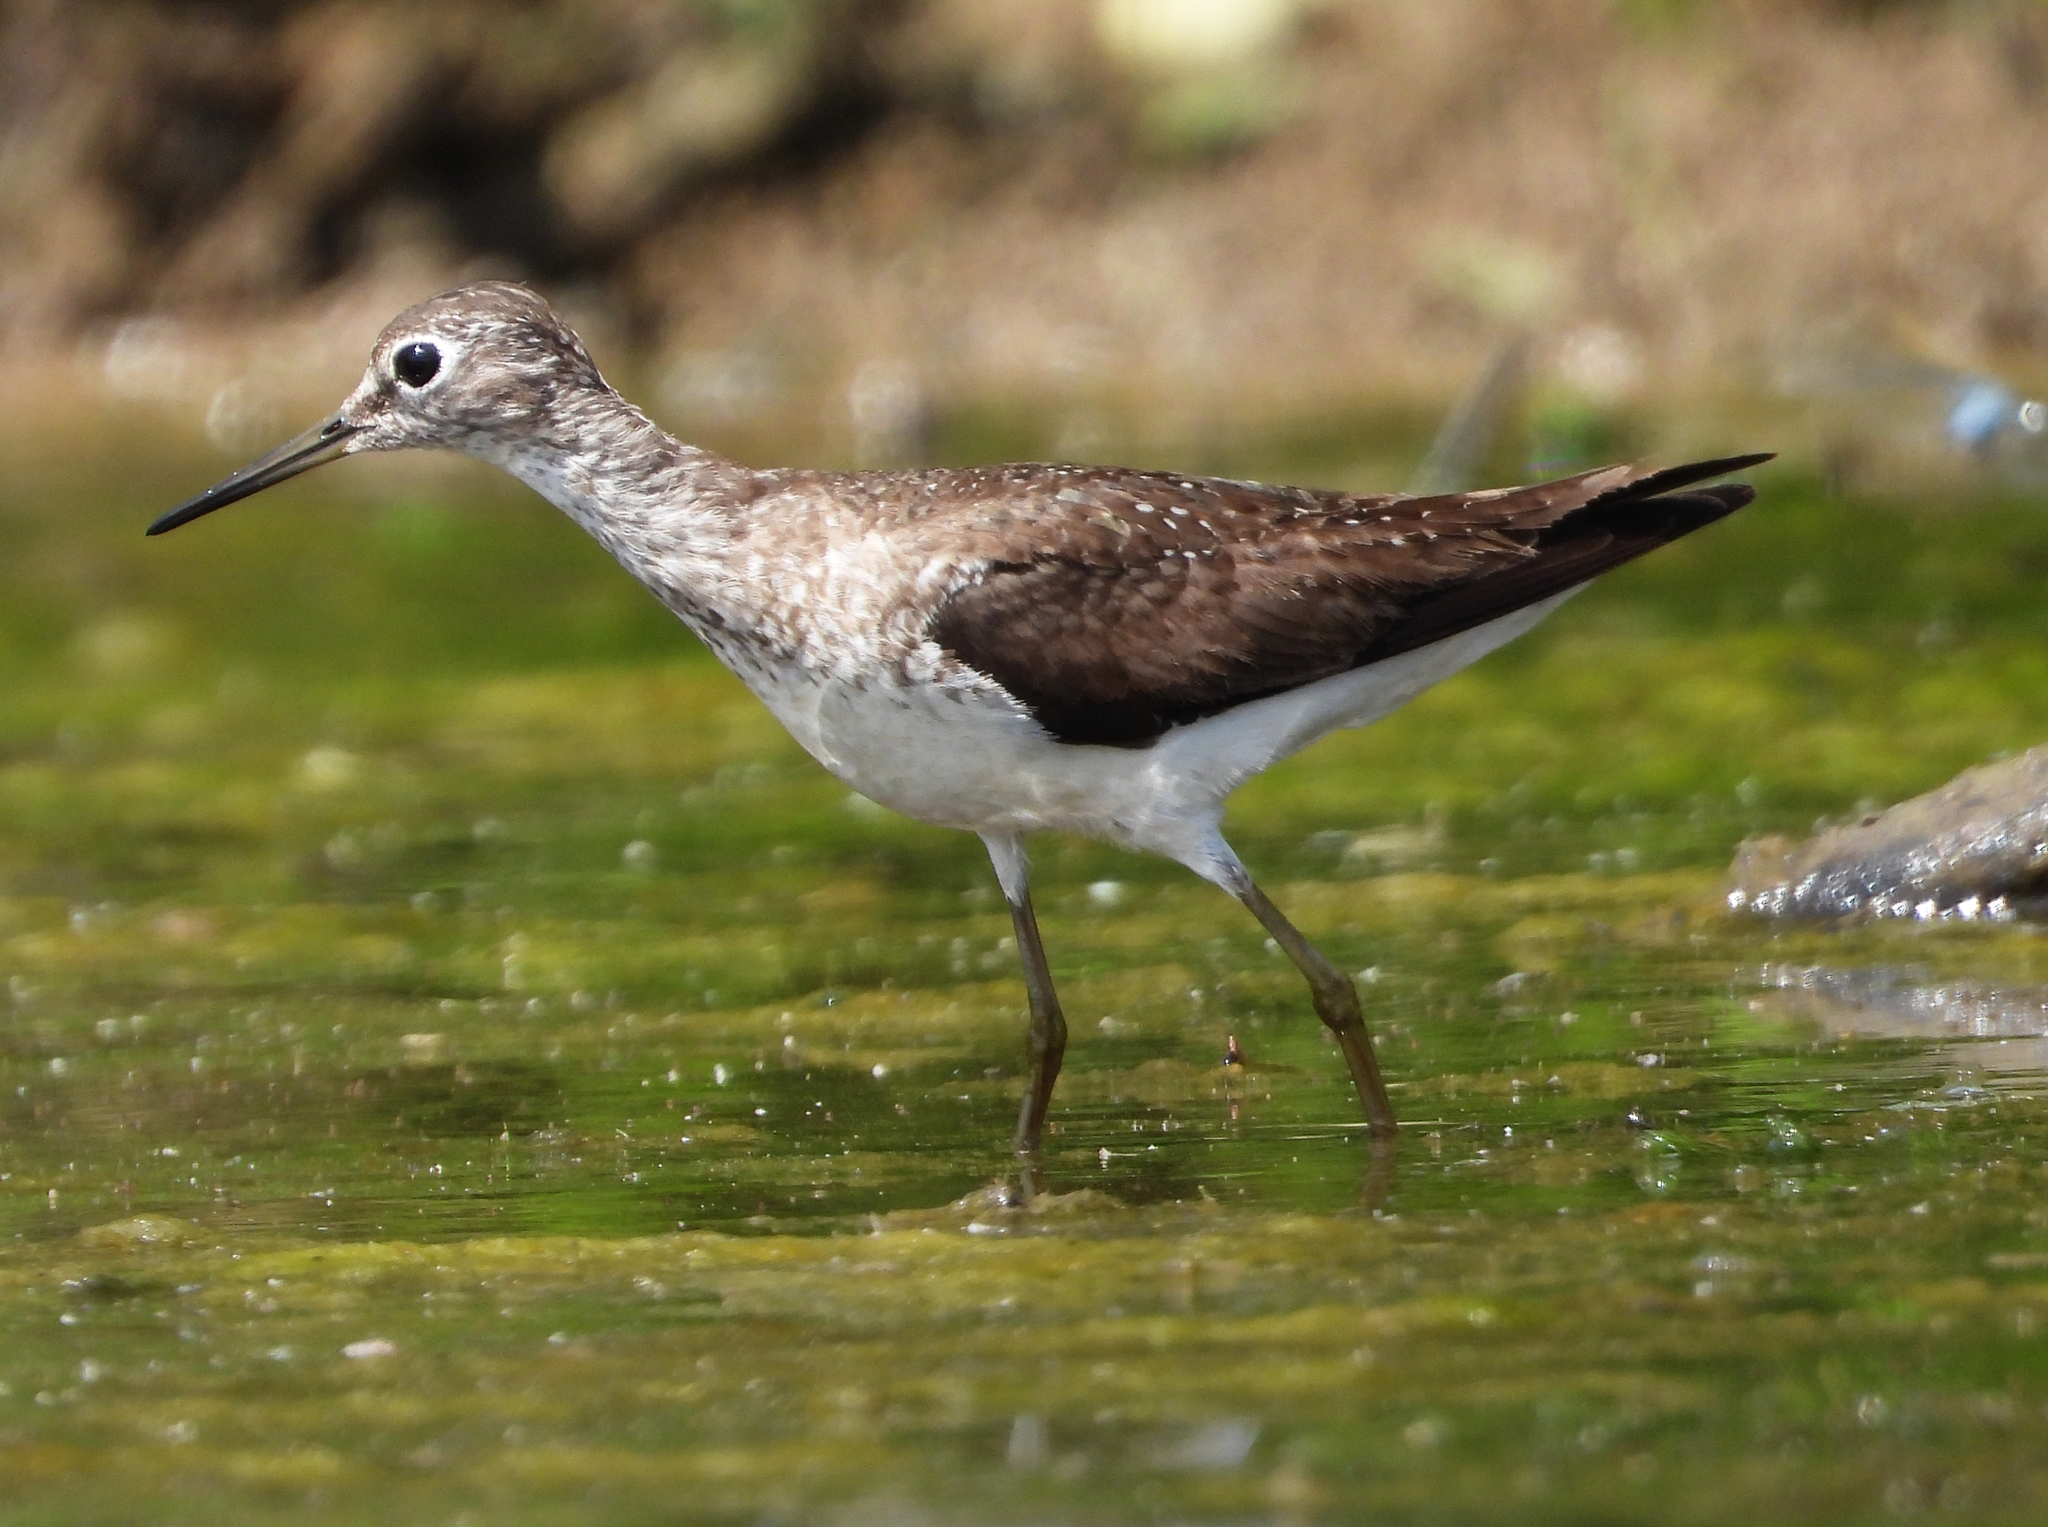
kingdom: Animalia
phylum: Chordata
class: Aves
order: Charadriiformes
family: Scolopacidae
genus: Tringa
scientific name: Tringa solitaria
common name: Solitary sandpiper
